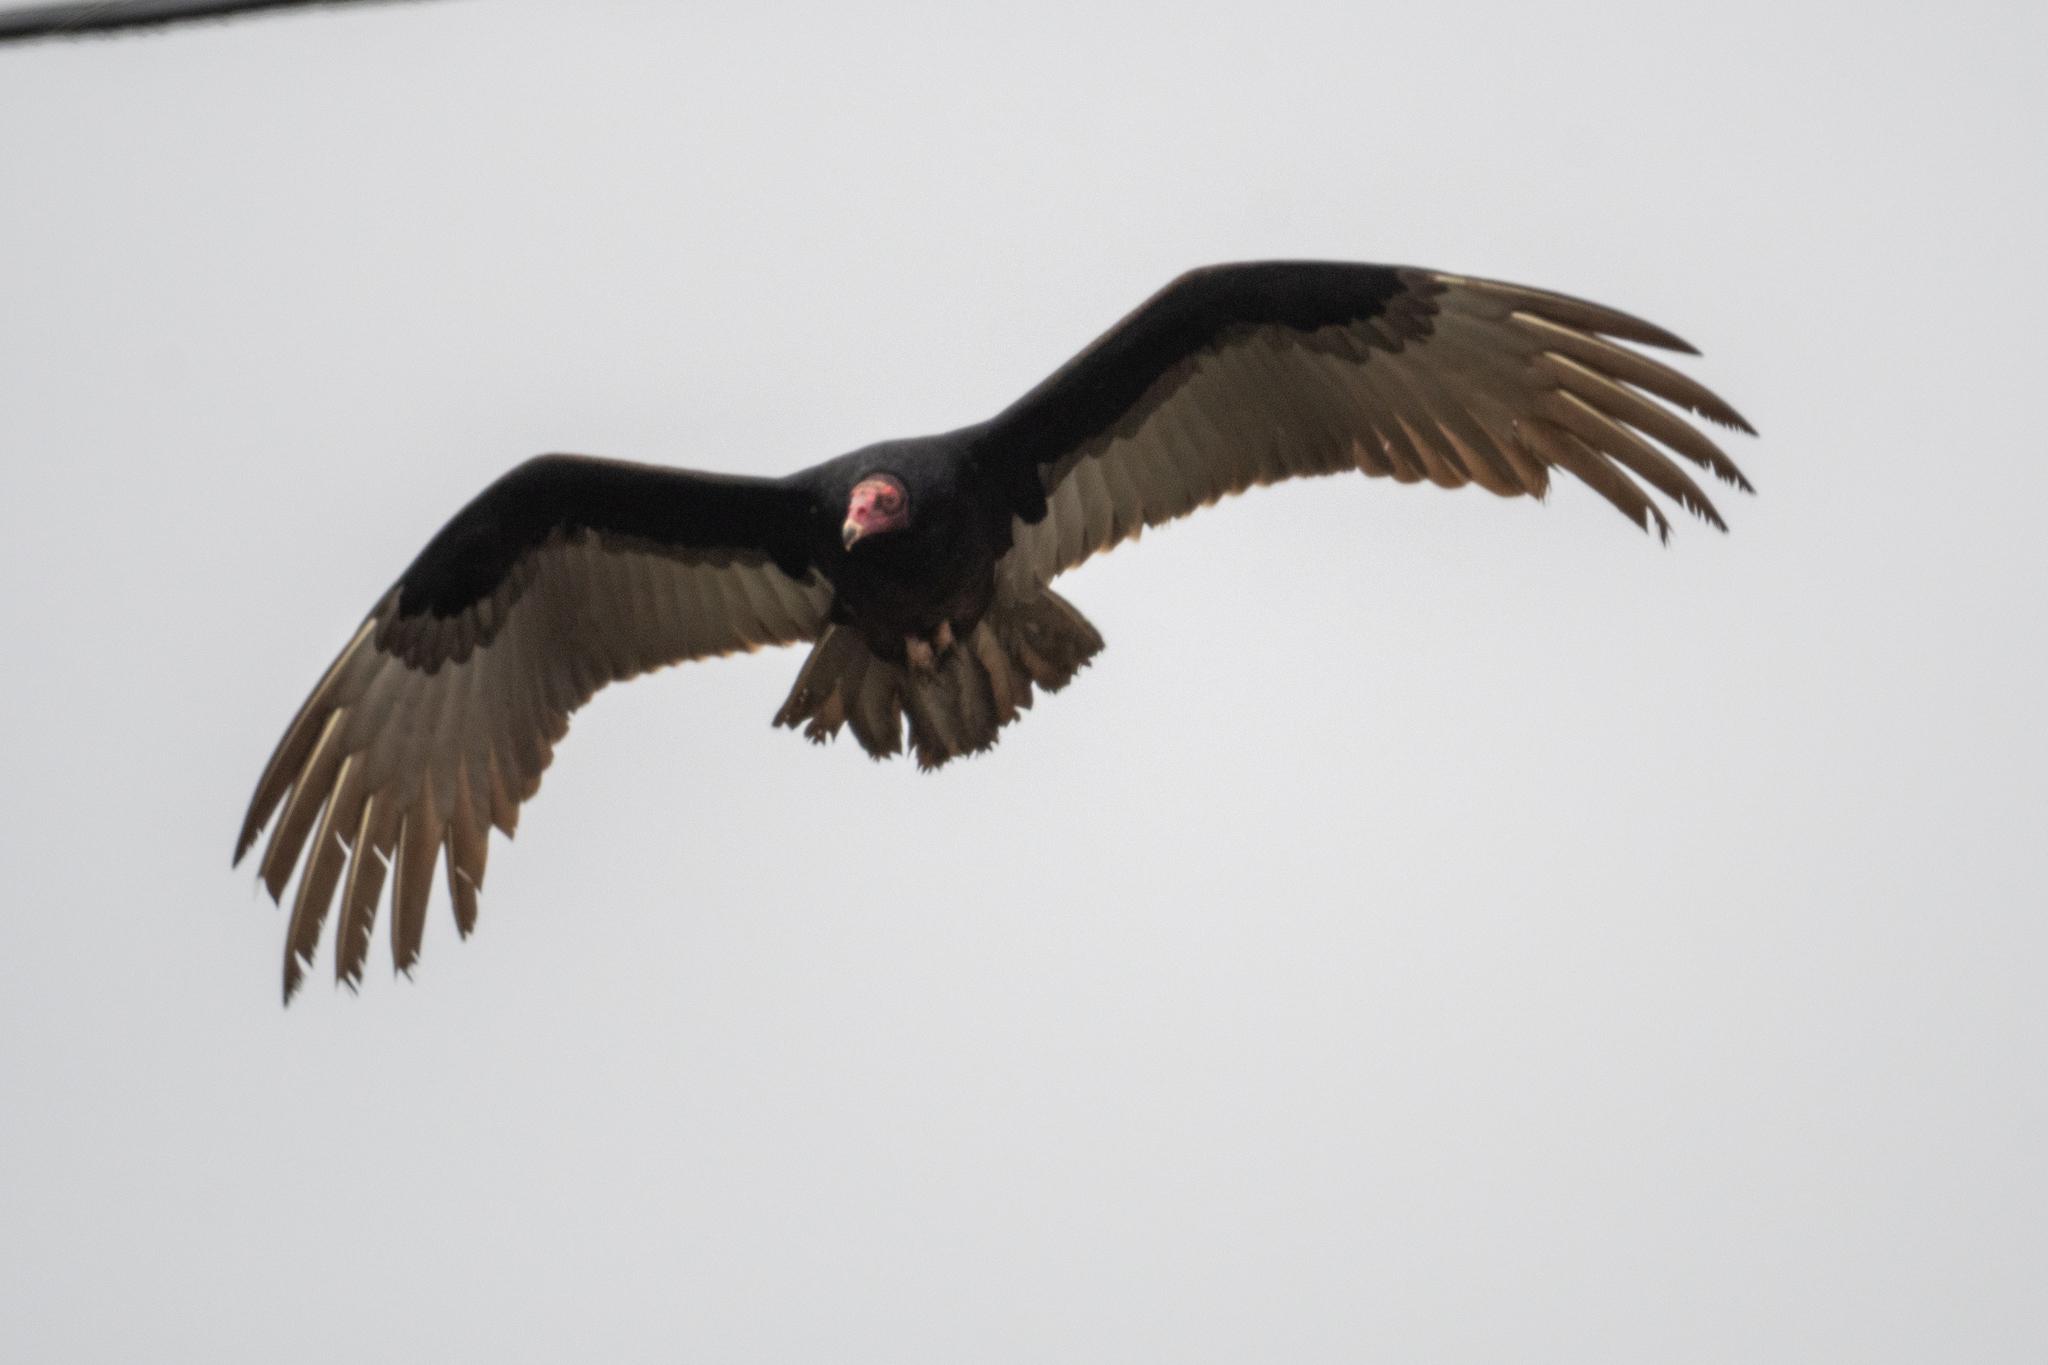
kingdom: Animalia
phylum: Chordata
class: Aves
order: Accipitriformes
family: Cathartidae
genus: Cathartes
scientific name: Cathartes aura
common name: Turkey vulture
